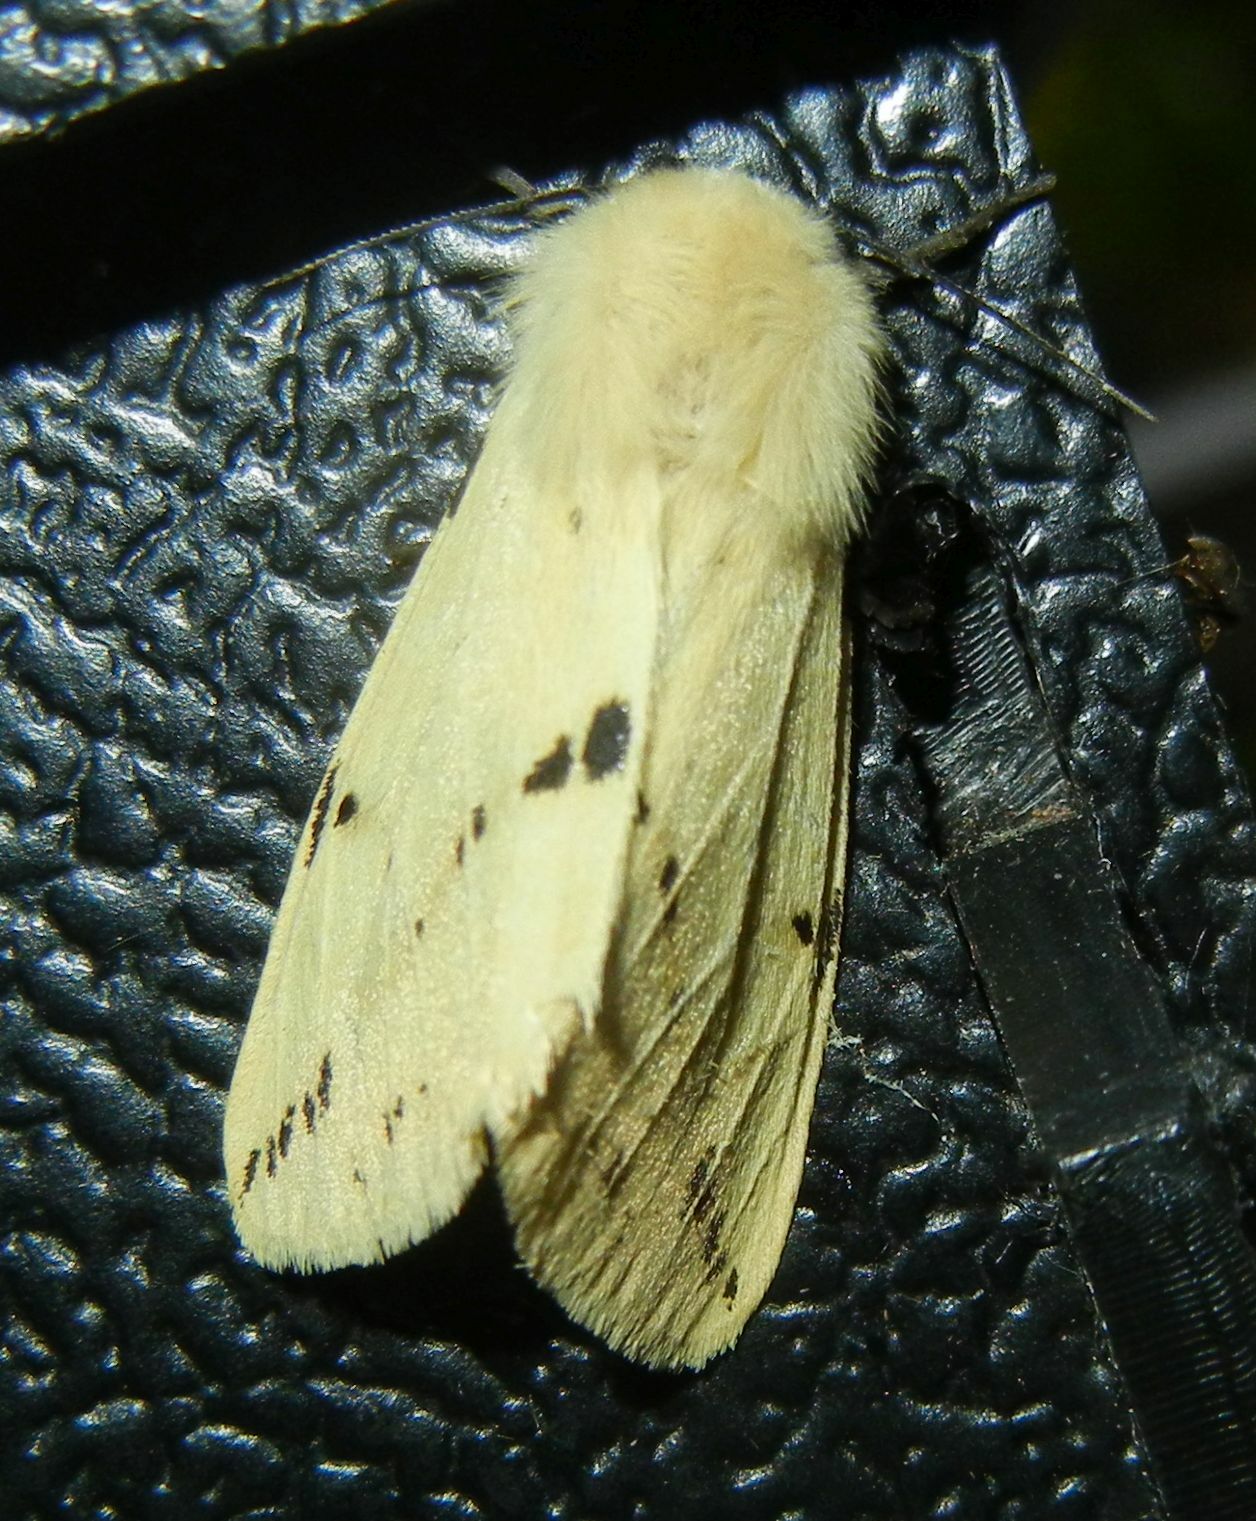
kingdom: Animalia
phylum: Arthropoda
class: Insecta
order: Lepidoptera
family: Erebidae
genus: Spilarctia
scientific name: Spilarctia lutea
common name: Buff ermine
